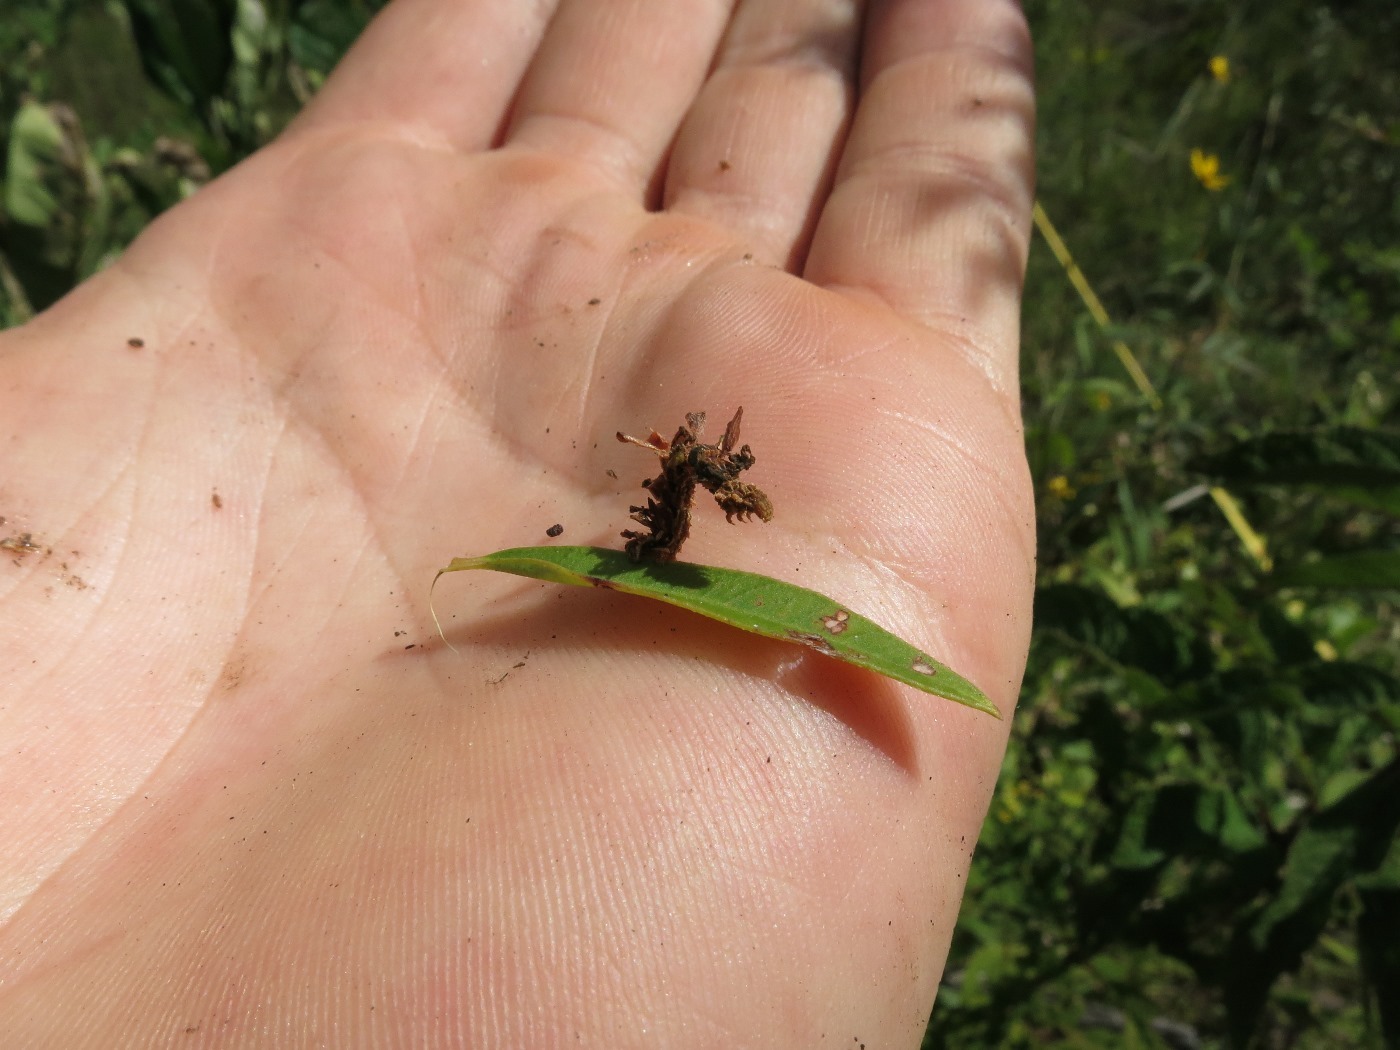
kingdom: Animalia
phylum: Arthropoda
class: Insecta
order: Lepidoptera
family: Geometridae
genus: Synchlora
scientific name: Synchlora aerata
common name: Wavy-lined emerald
